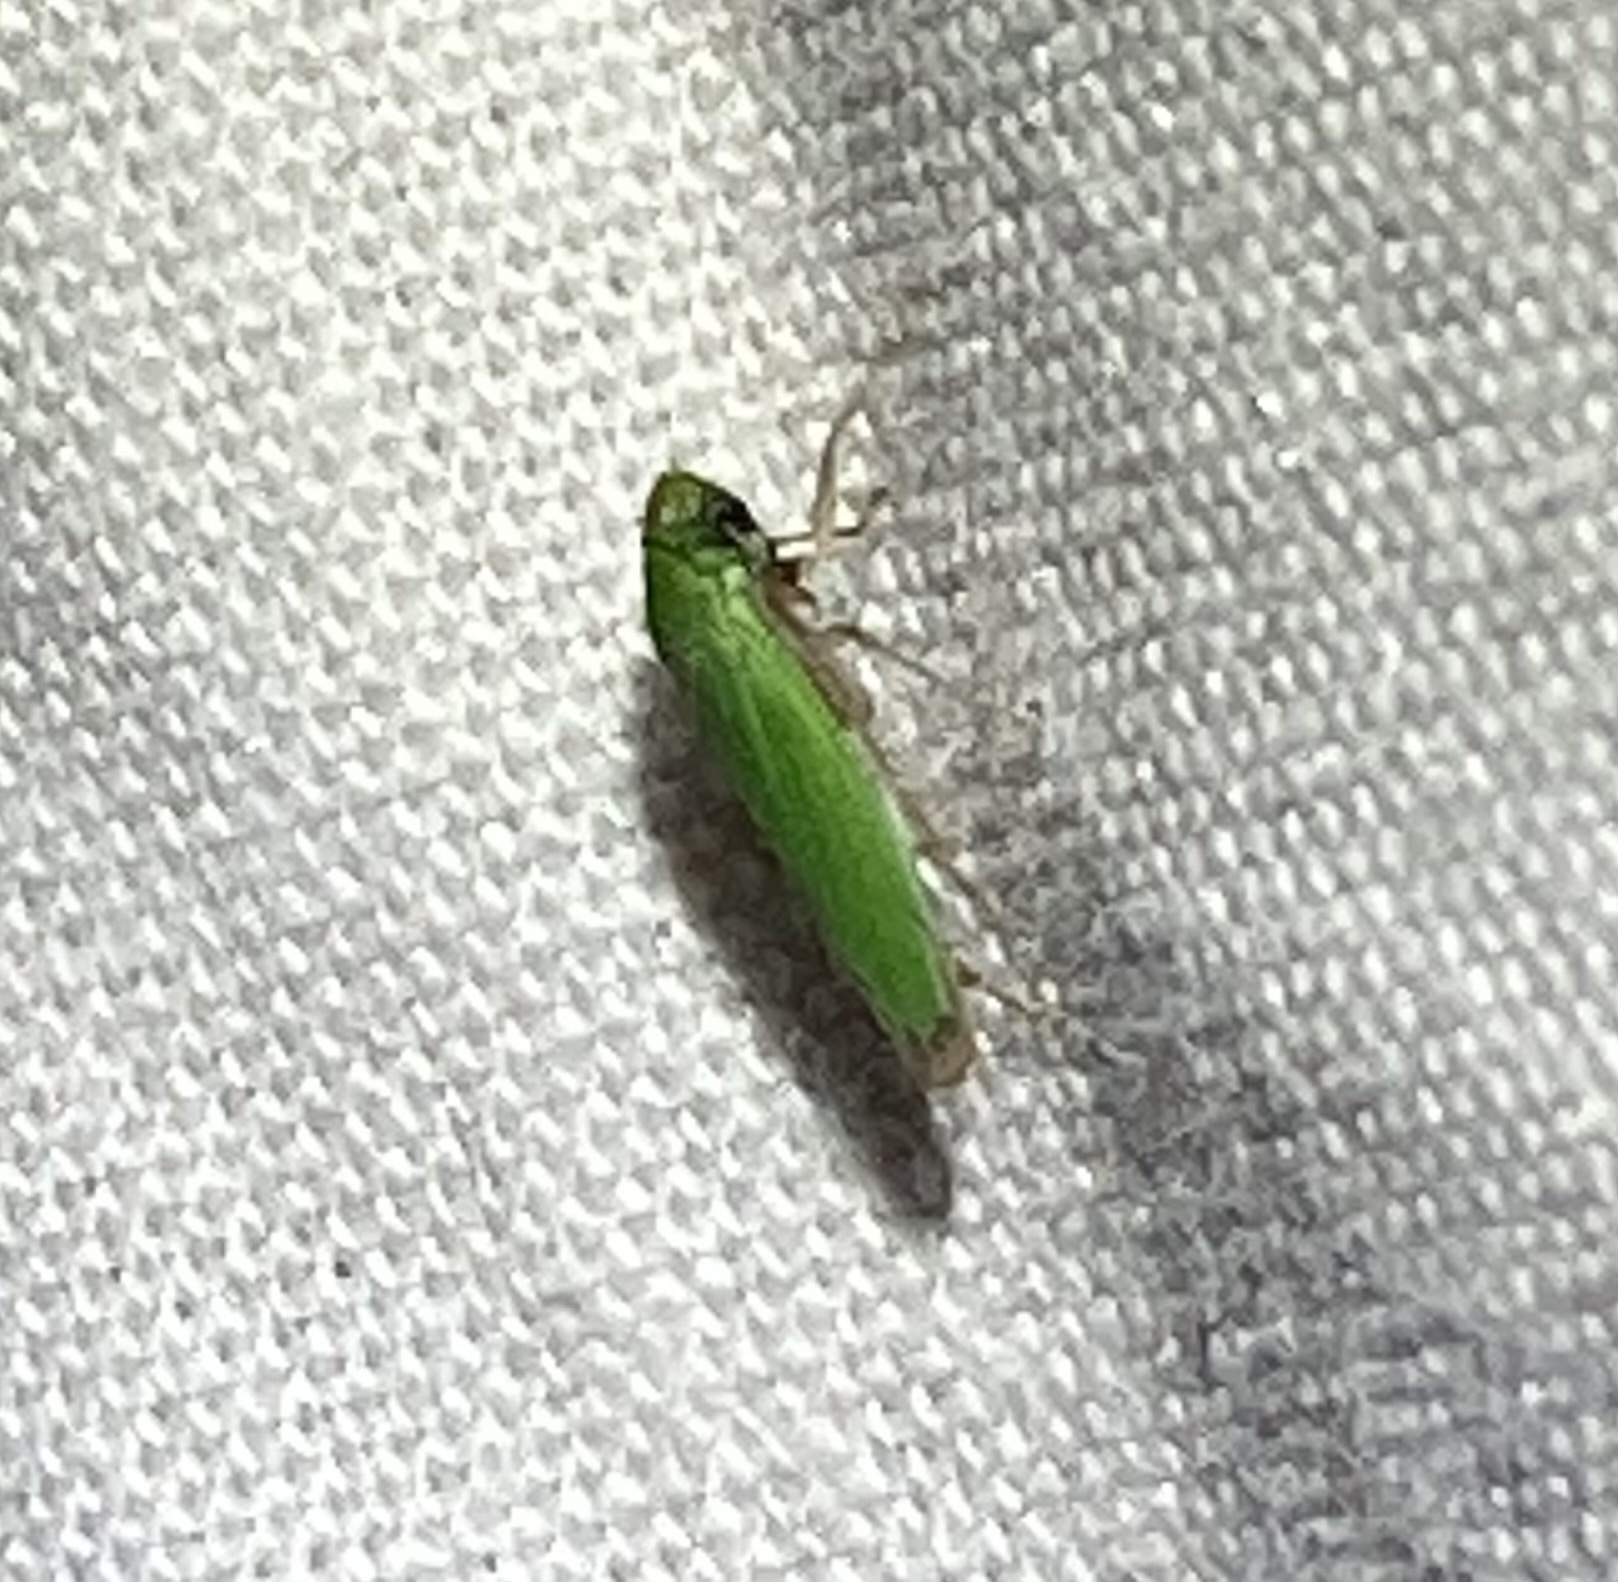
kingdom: Animalia
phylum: Arthropoda
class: Insecta
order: Hemiptera
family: Cicadellidae
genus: Hortensia
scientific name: Hortensia similis
